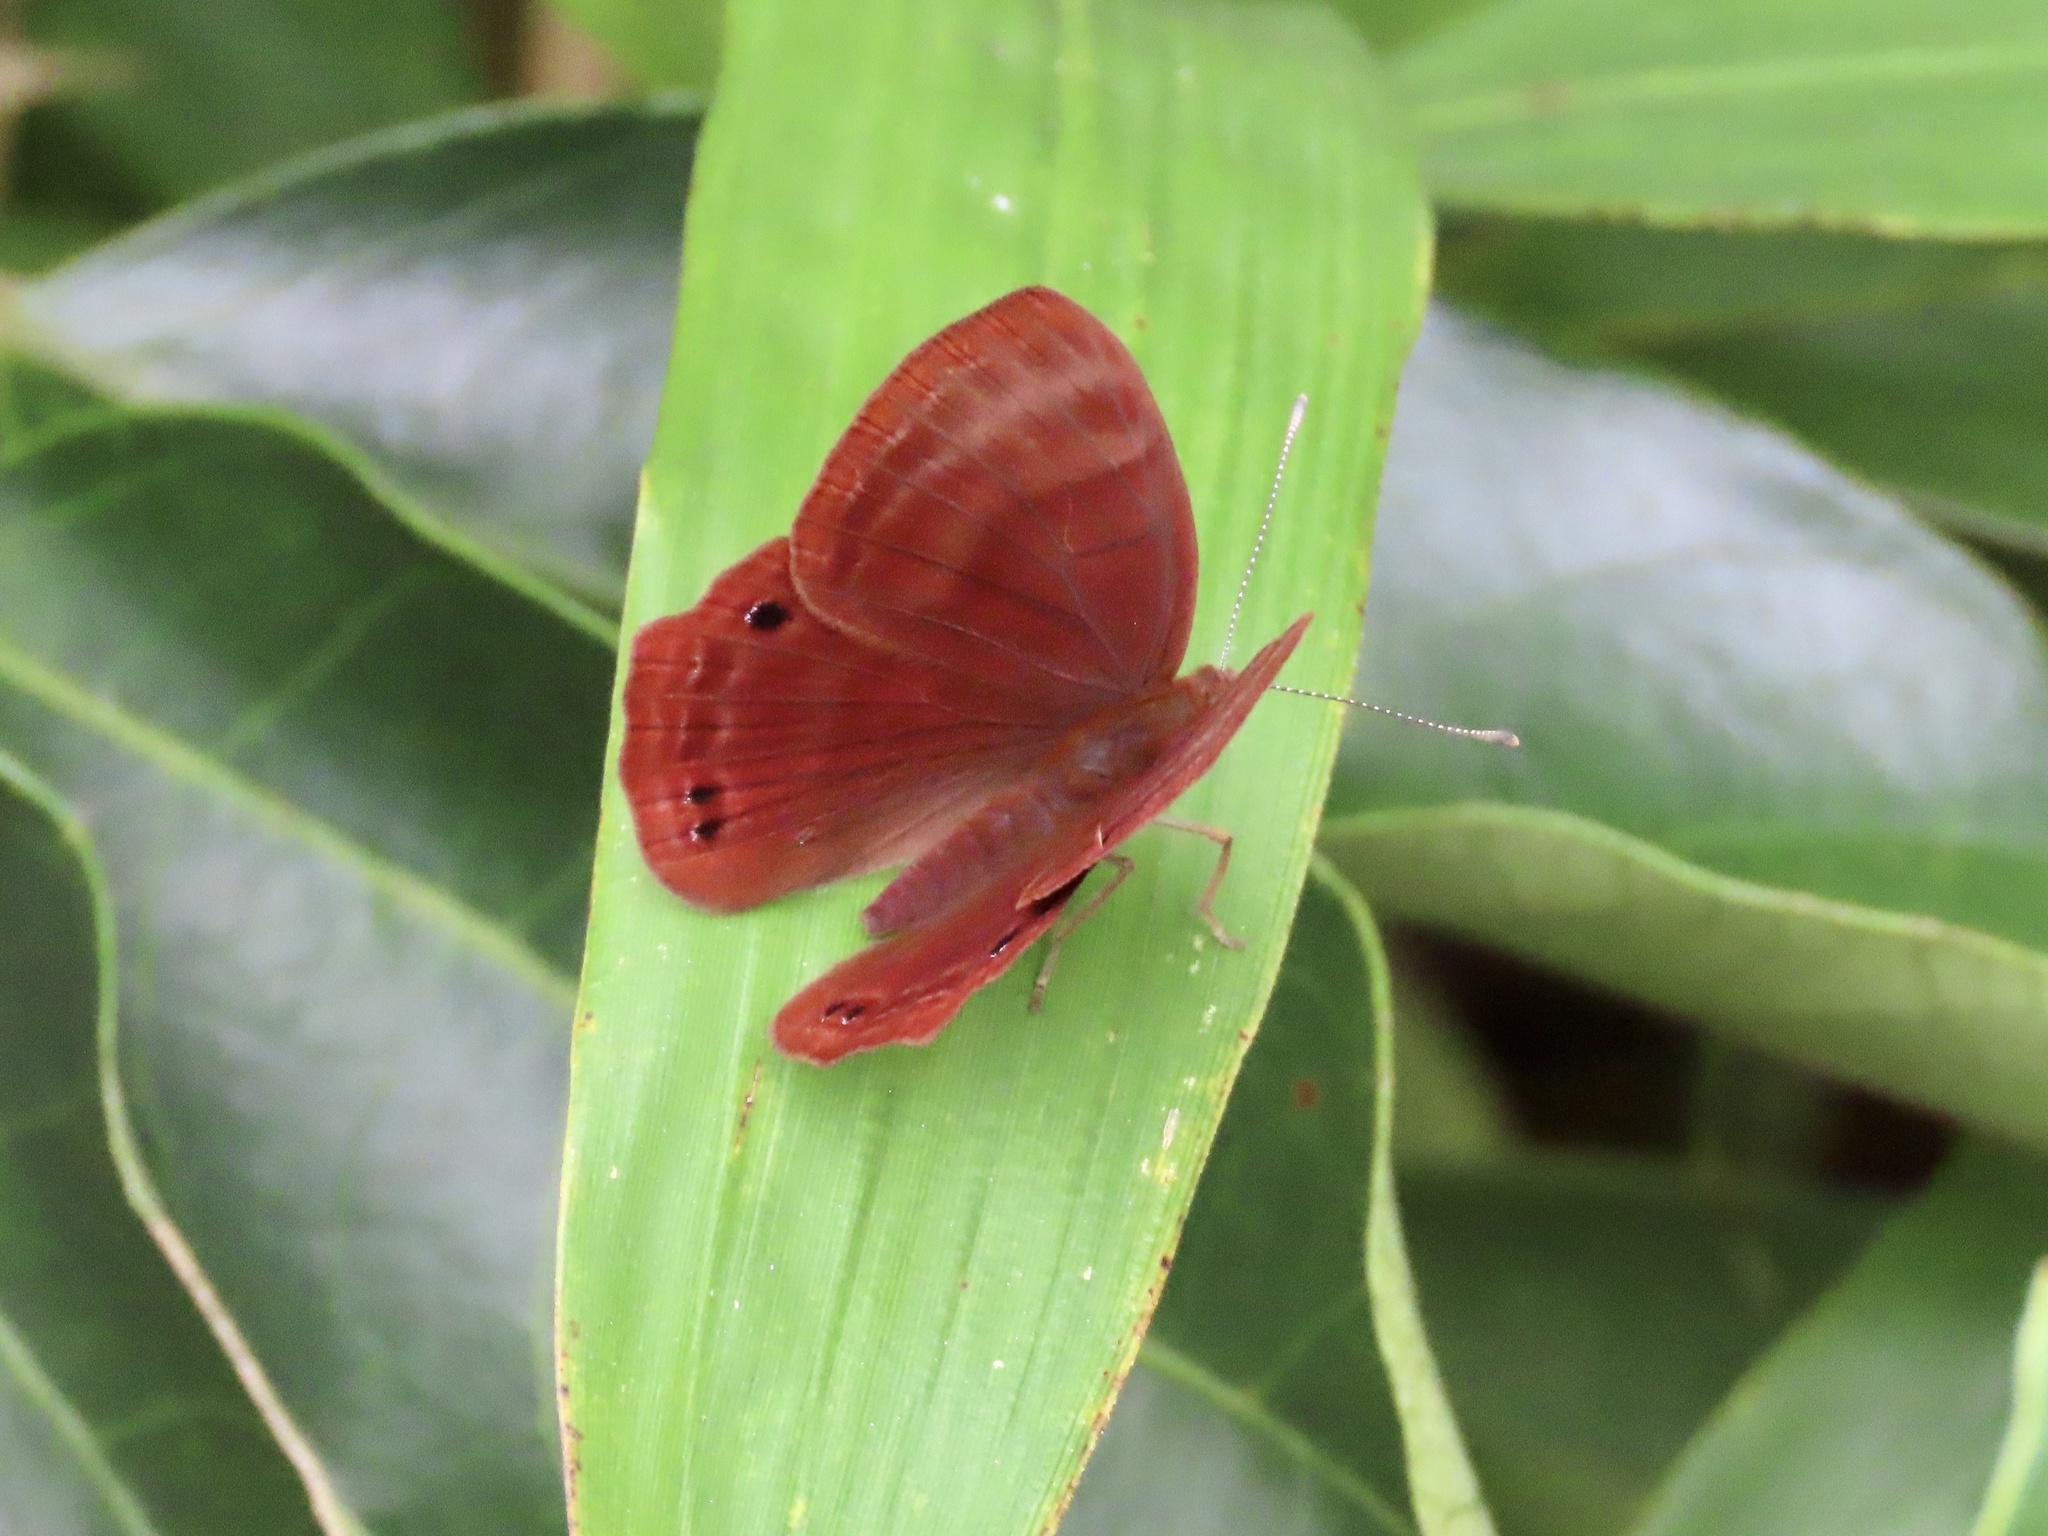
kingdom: Animalia
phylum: Arthropoda
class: Insecta
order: Lepidoptera
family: Lycaenidae
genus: Abisara
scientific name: Abisara echeria
